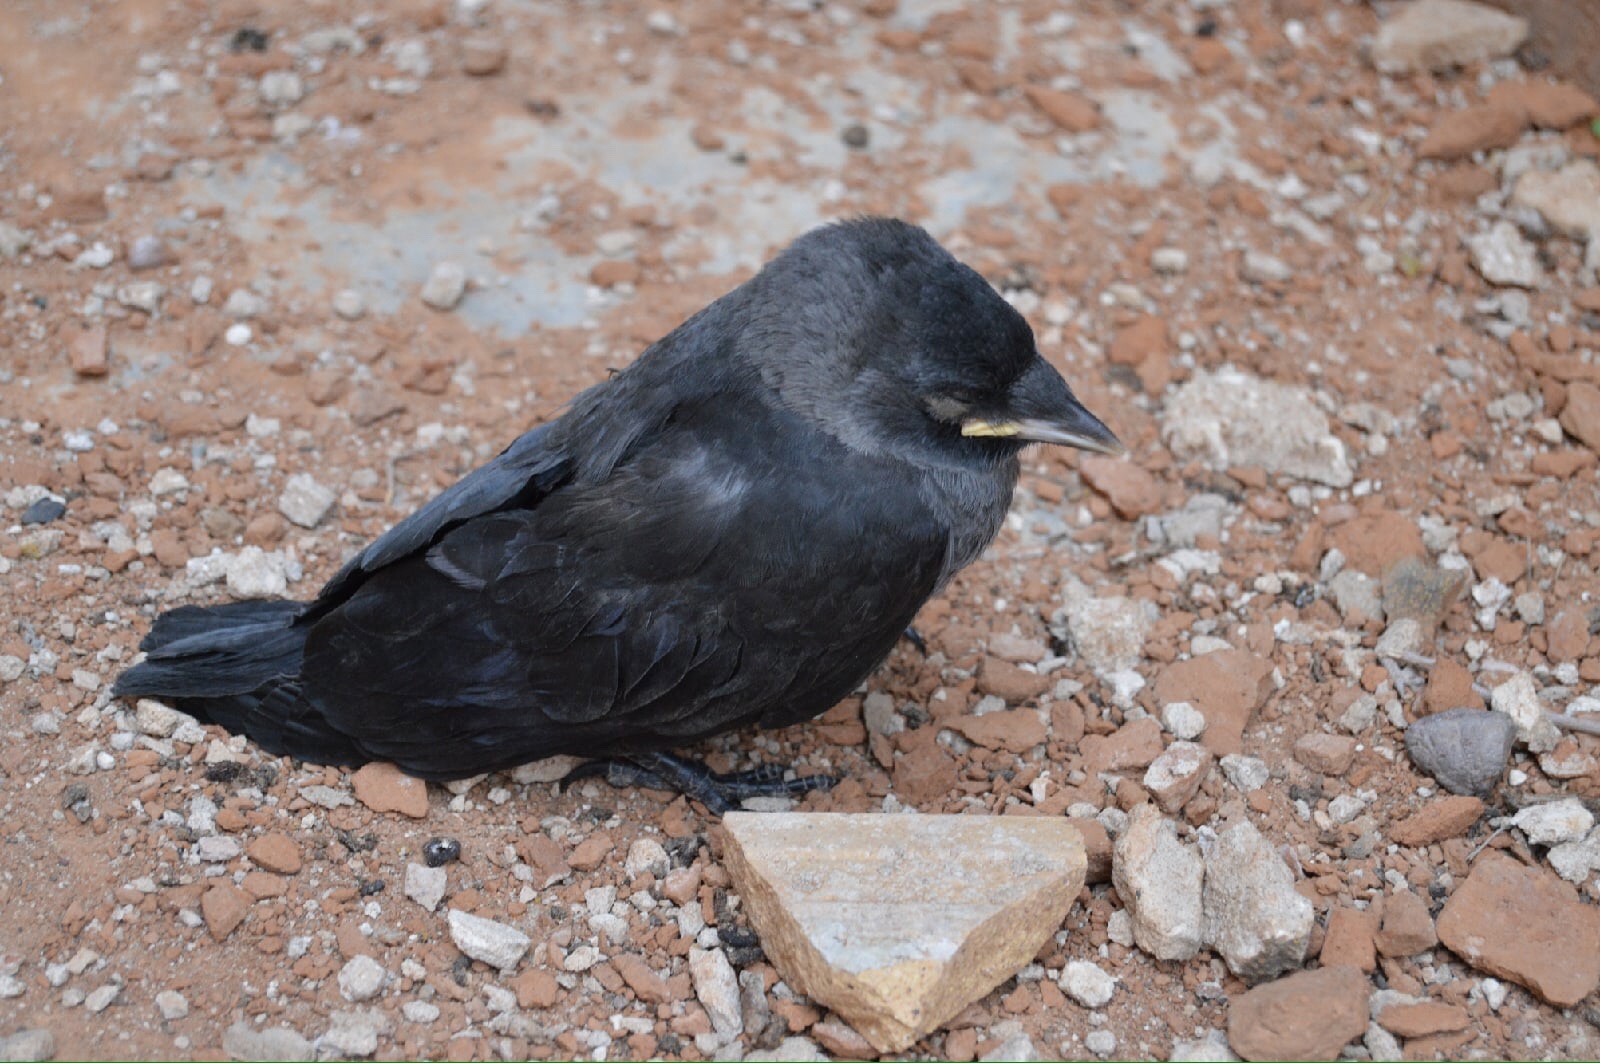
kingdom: Animalia
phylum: Chordata
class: Aves
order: Passeriformes
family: Corvidae
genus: Coloeus
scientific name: Coloeus monedula
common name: Western jackdaw
